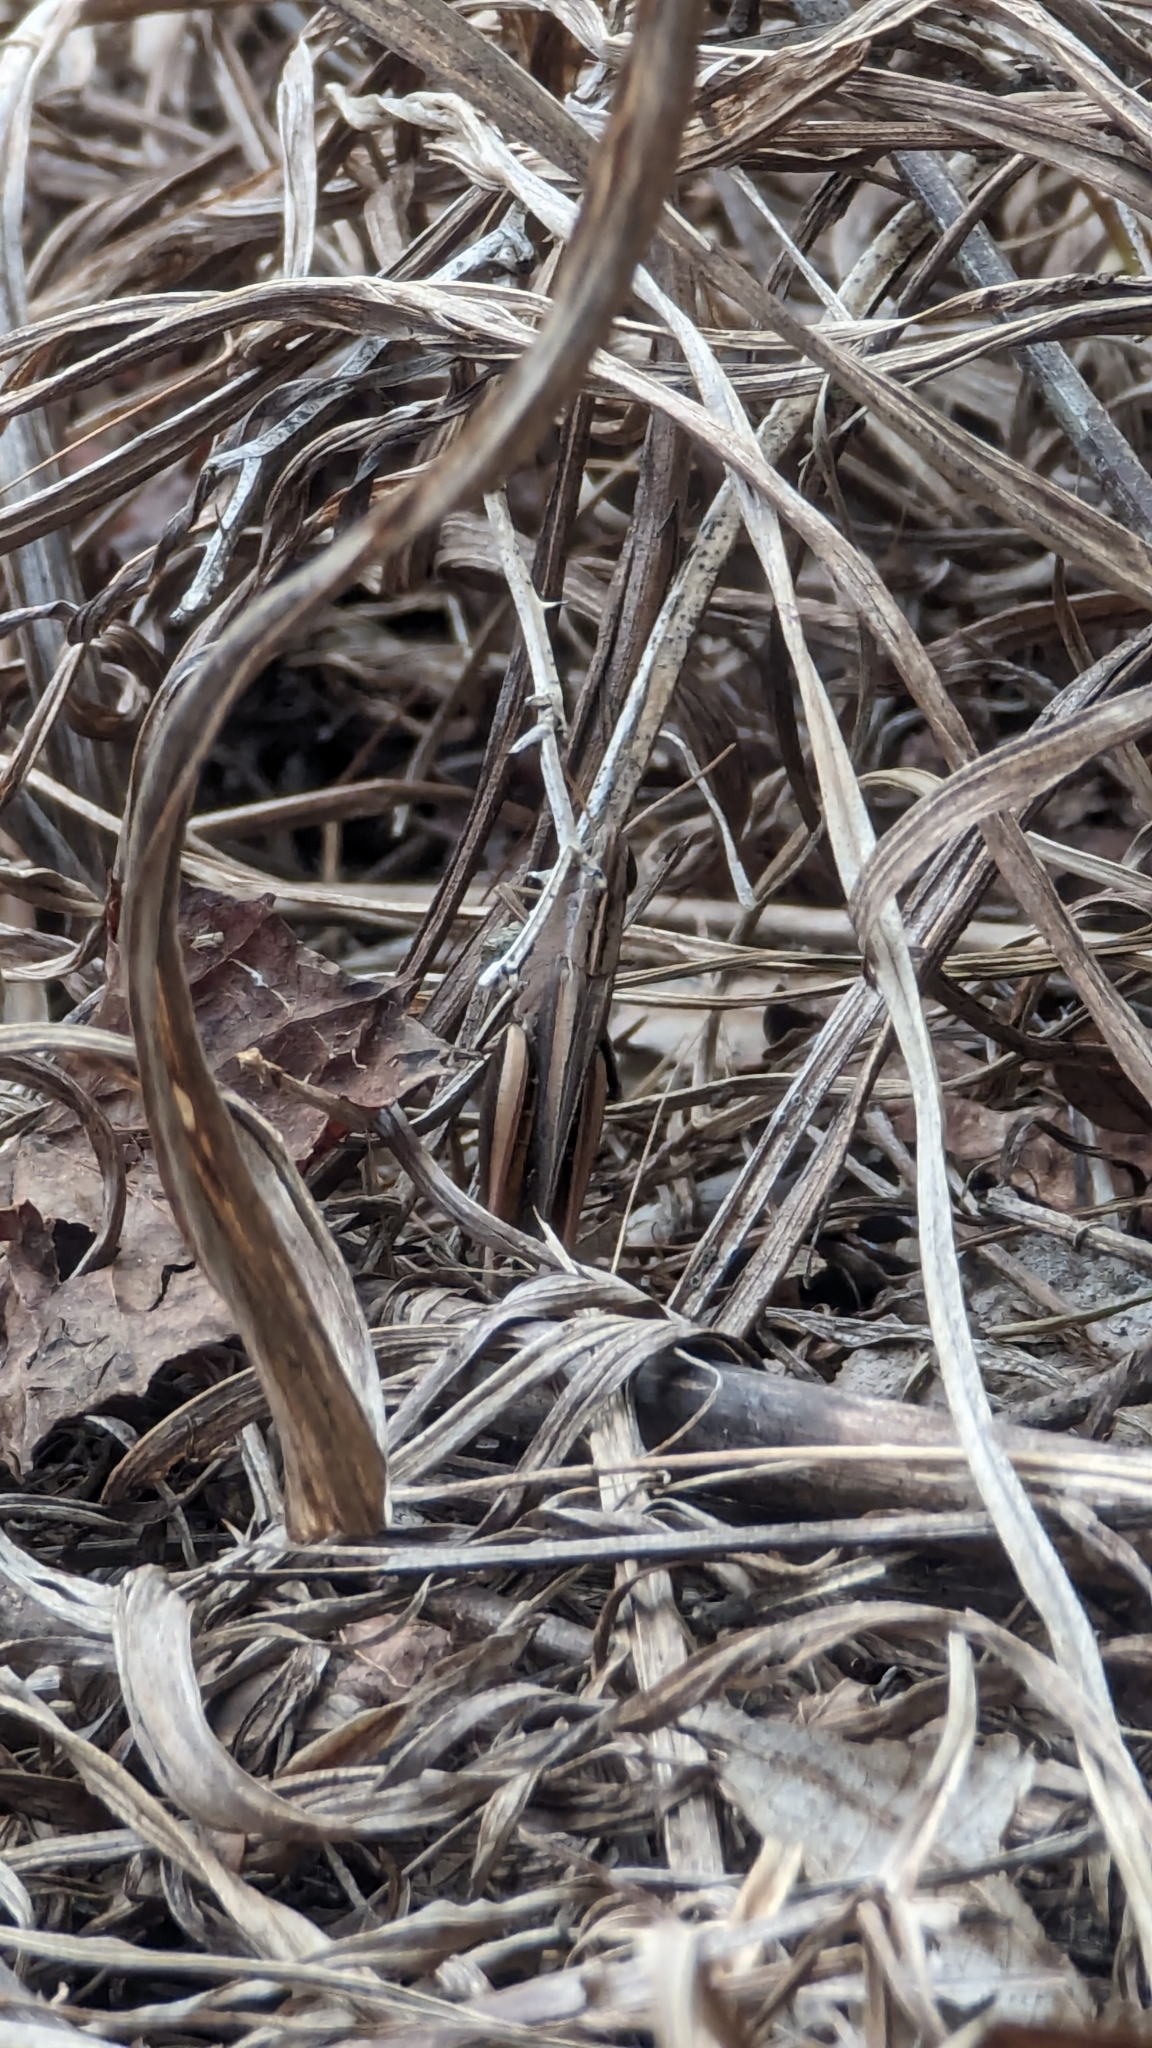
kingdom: Animalia
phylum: Arthropoda
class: Insecta
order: Orthoptera
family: Acrididae
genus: Amblytropidia
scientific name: Amblytropidia mysteca
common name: Brown winter grasshopper
